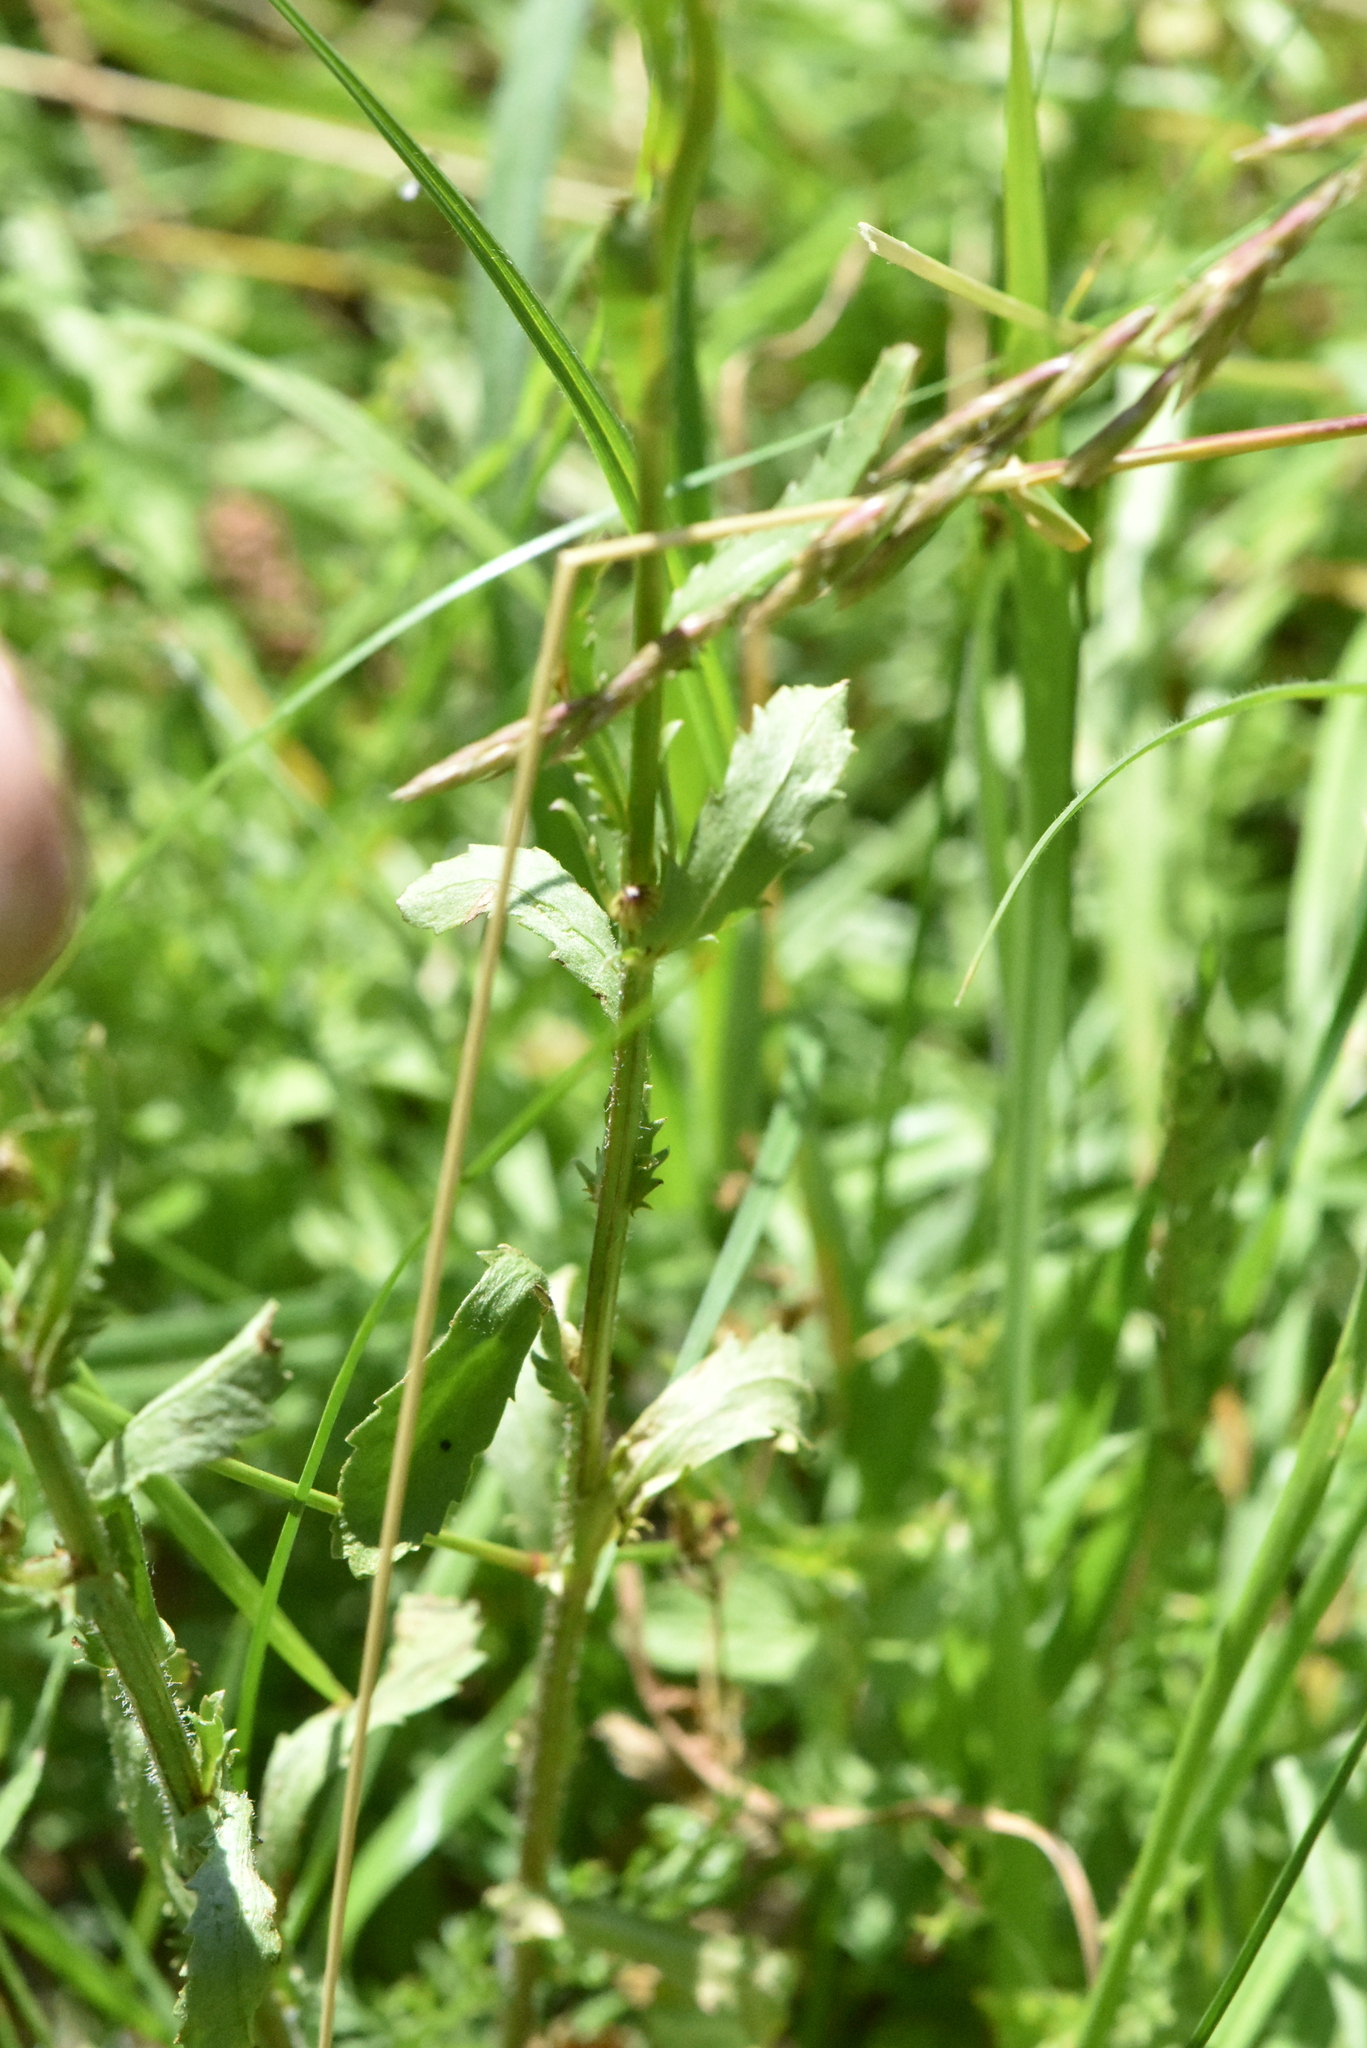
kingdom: Plantae
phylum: Tracheophyta
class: Magnoliopsida
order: Asterales
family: Asteraceae
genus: Leucanthemum
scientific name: Leucanthemum vulgare
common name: Oxeye daisy
